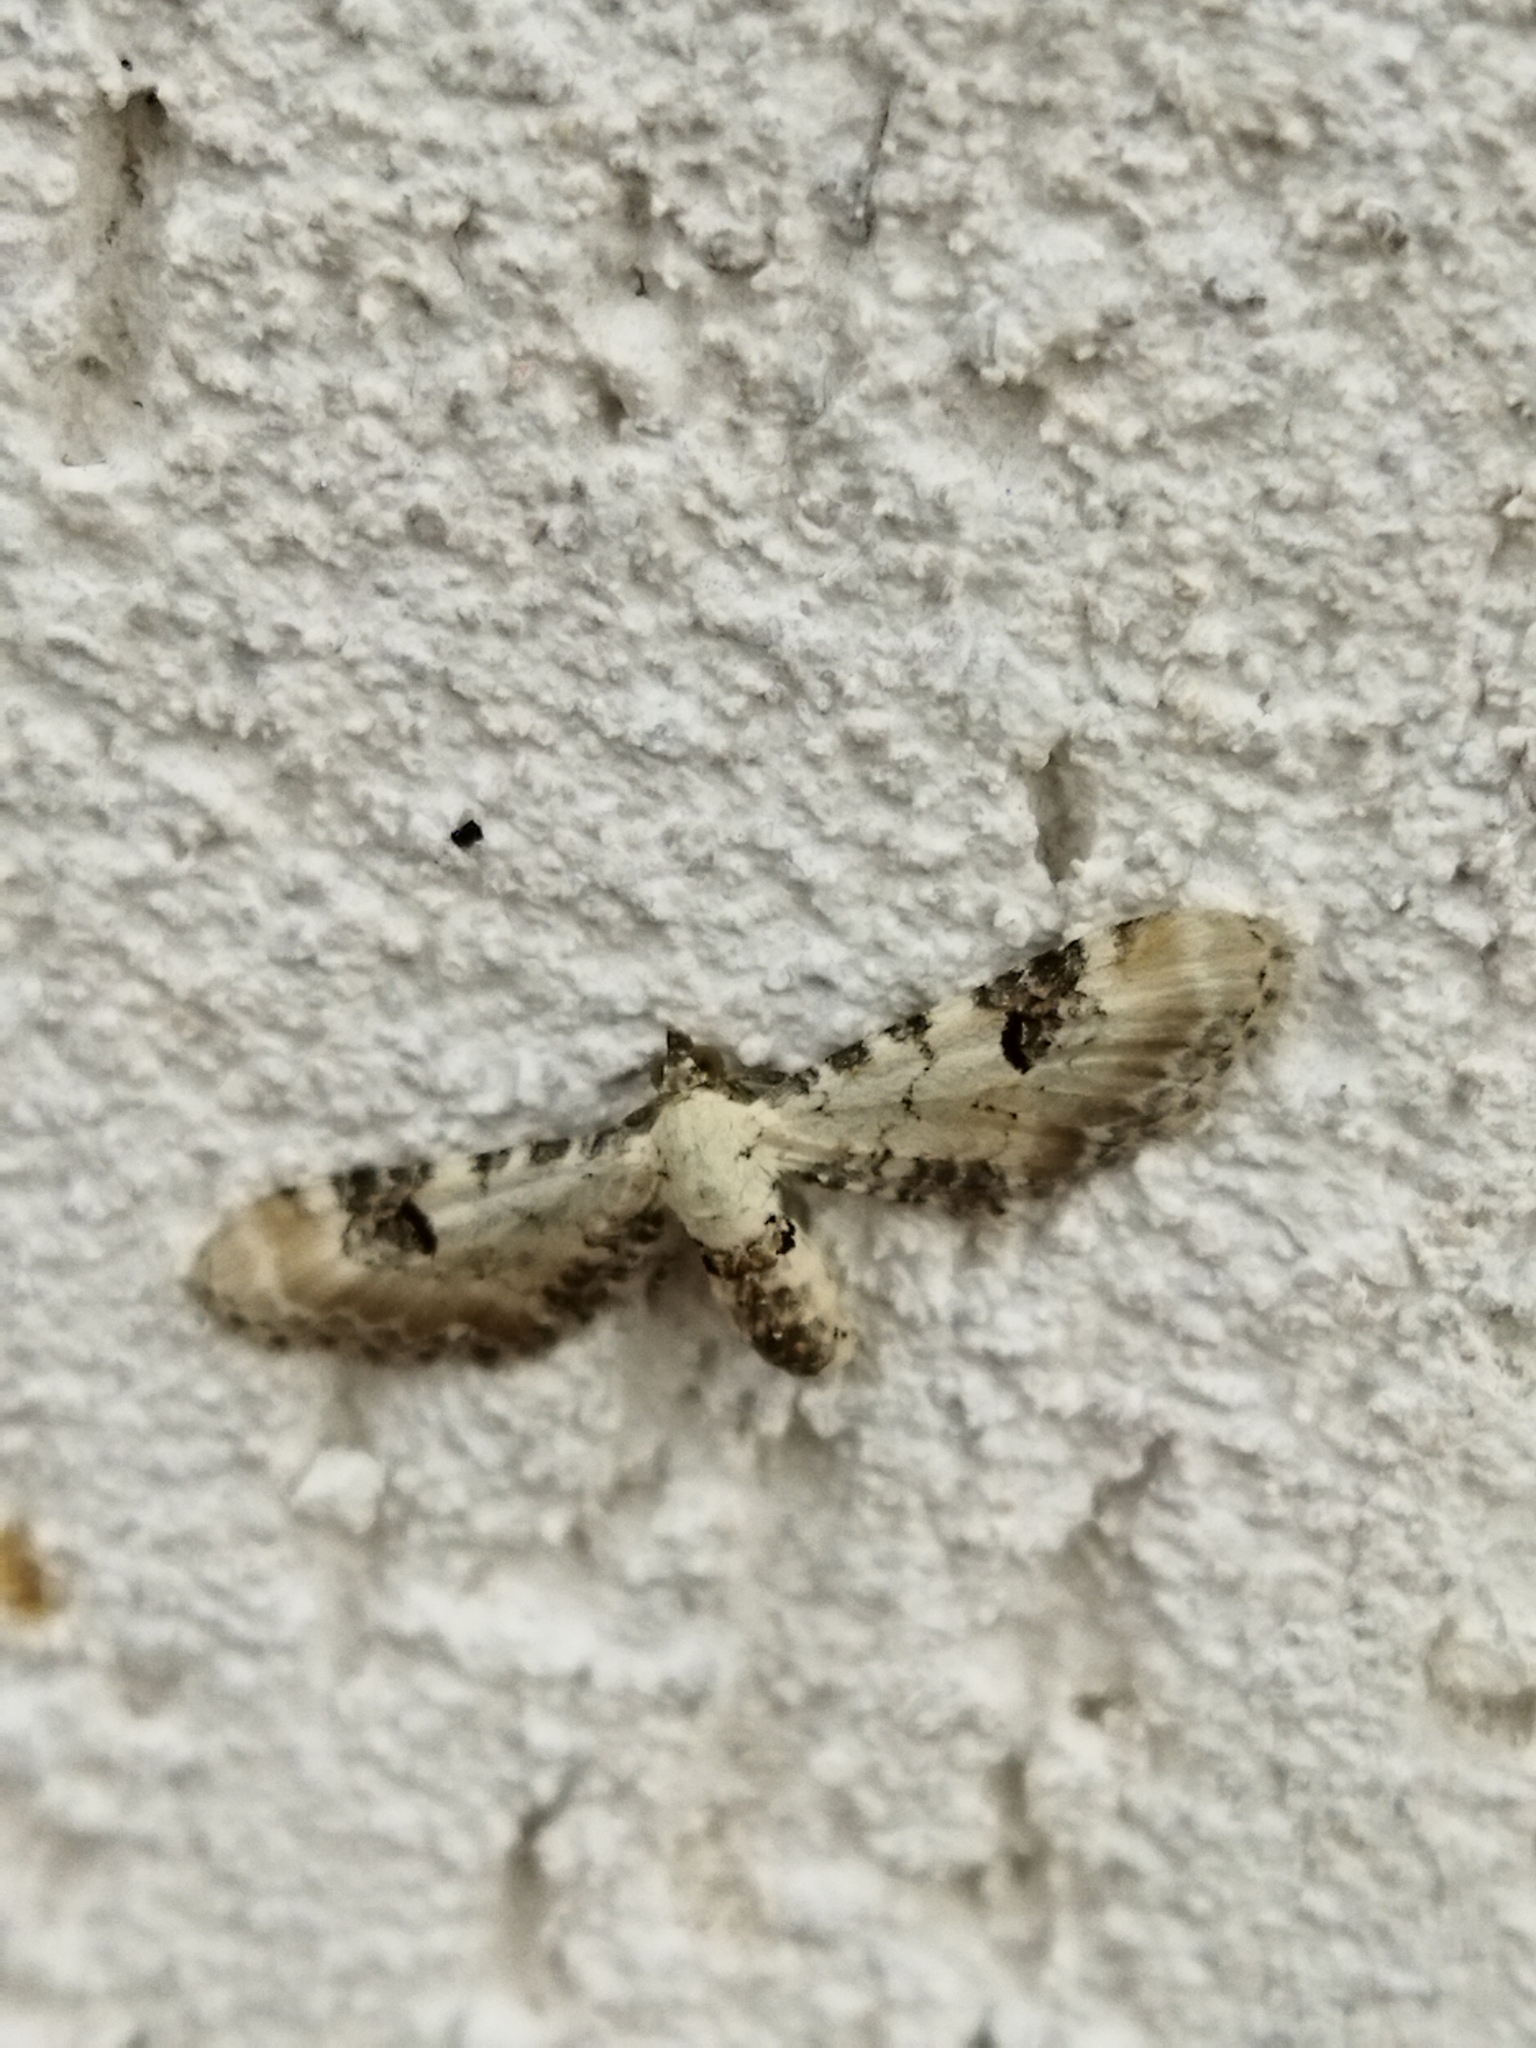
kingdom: Animalia
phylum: Arthropoda
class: Insecta
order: Lepidoptera
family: Geometridae
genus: Eupithecia
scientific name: Eupithecia centaureata
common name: Lime-speck pug
